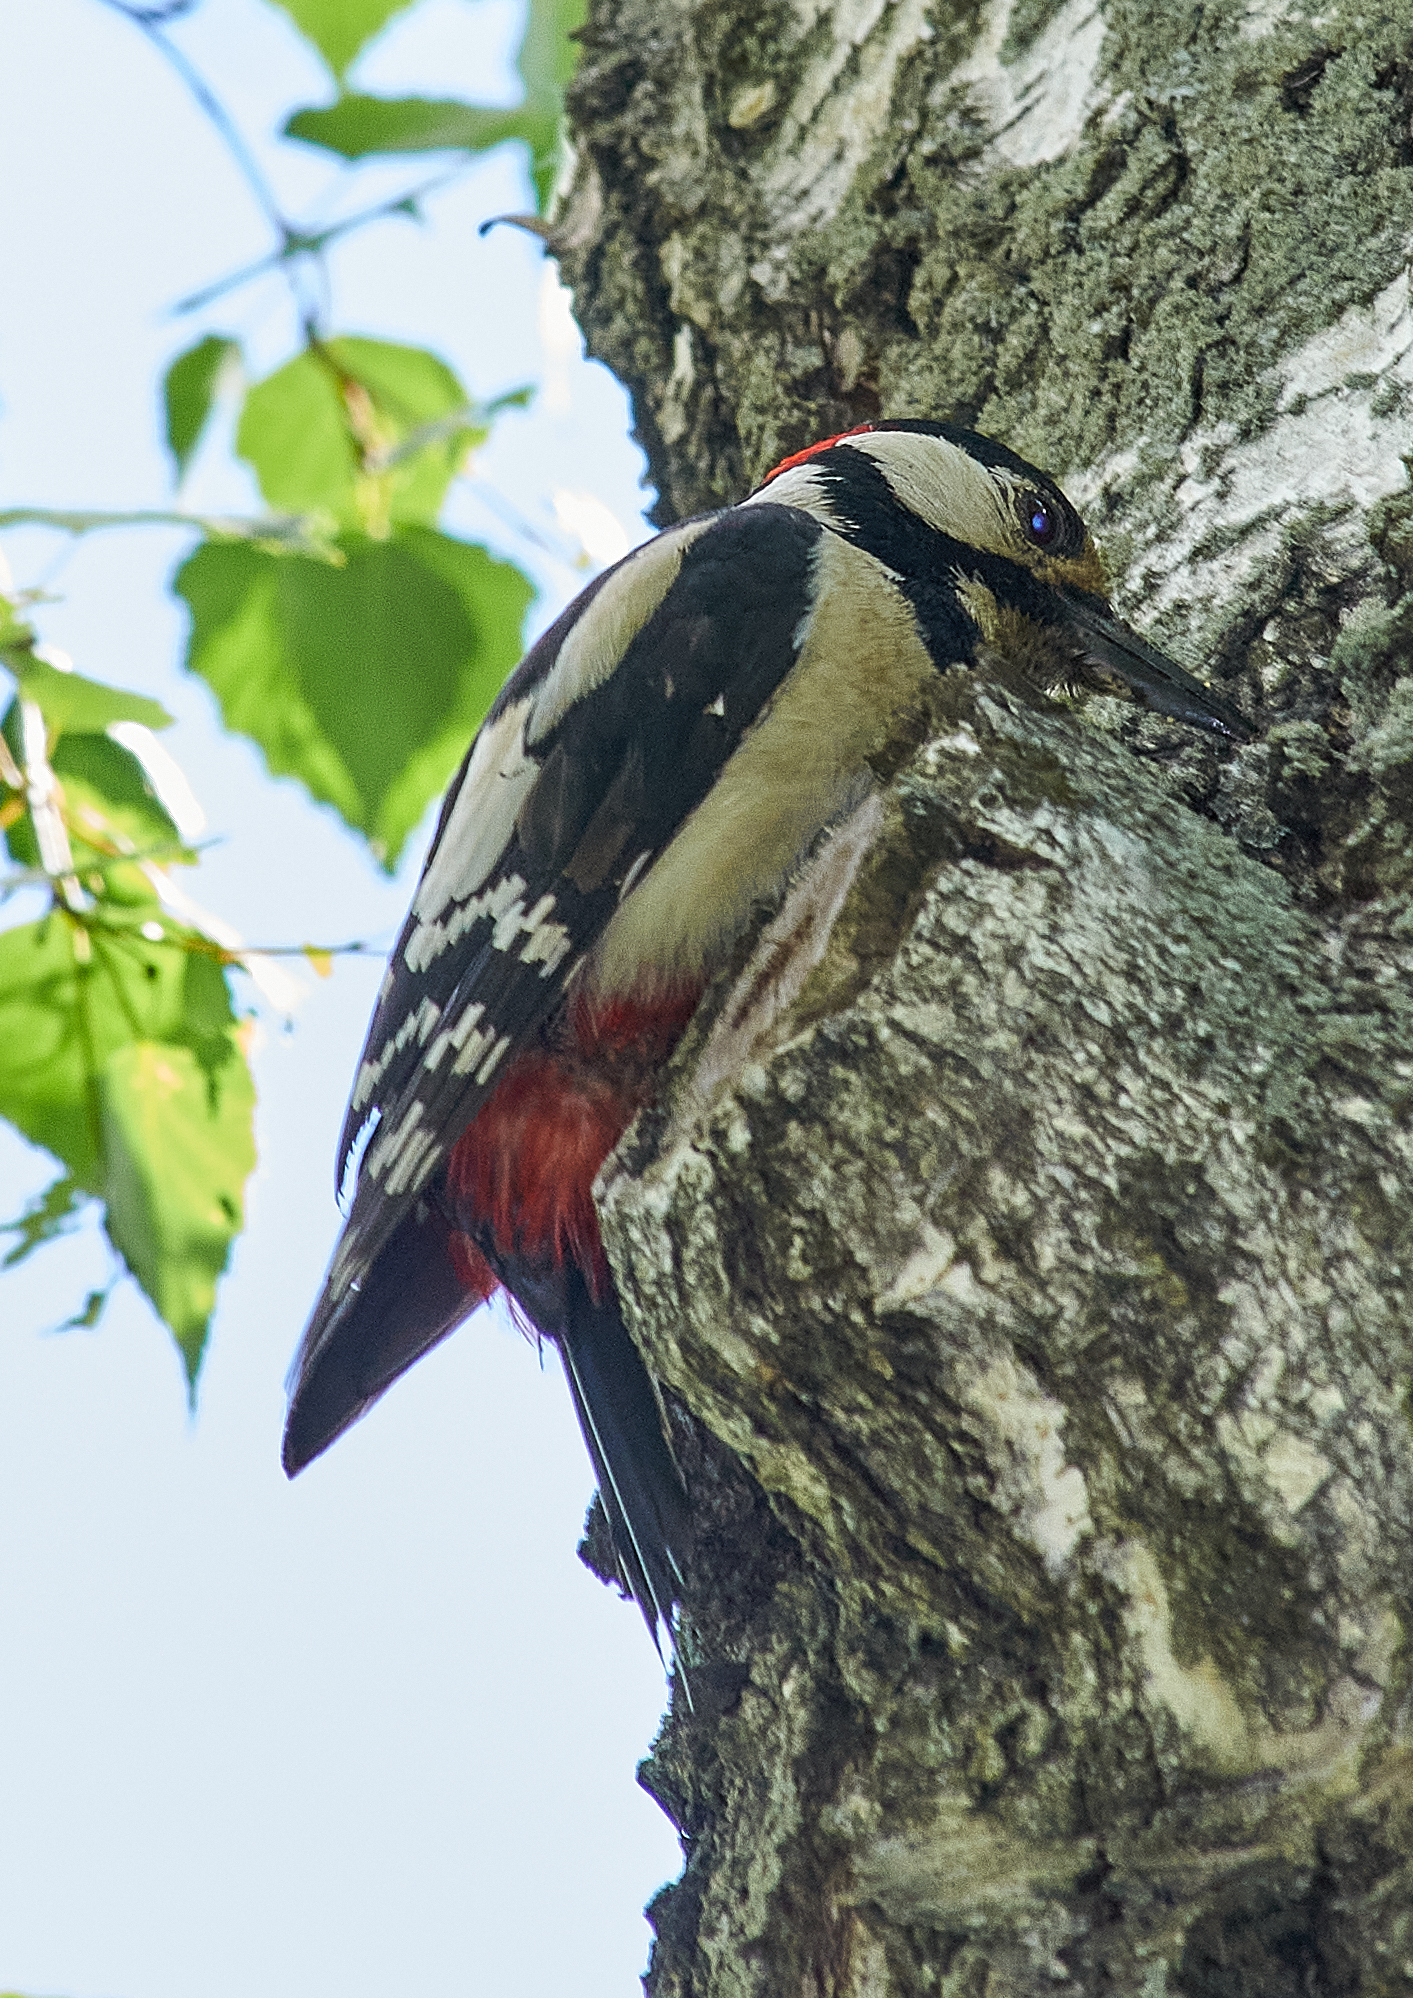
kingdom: Animalia
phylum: Chordata
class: Aves
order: Piciformes
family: Picidae
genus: Dendrocopos
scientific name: Dendrocopos major
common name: Great spotted woodpecker
